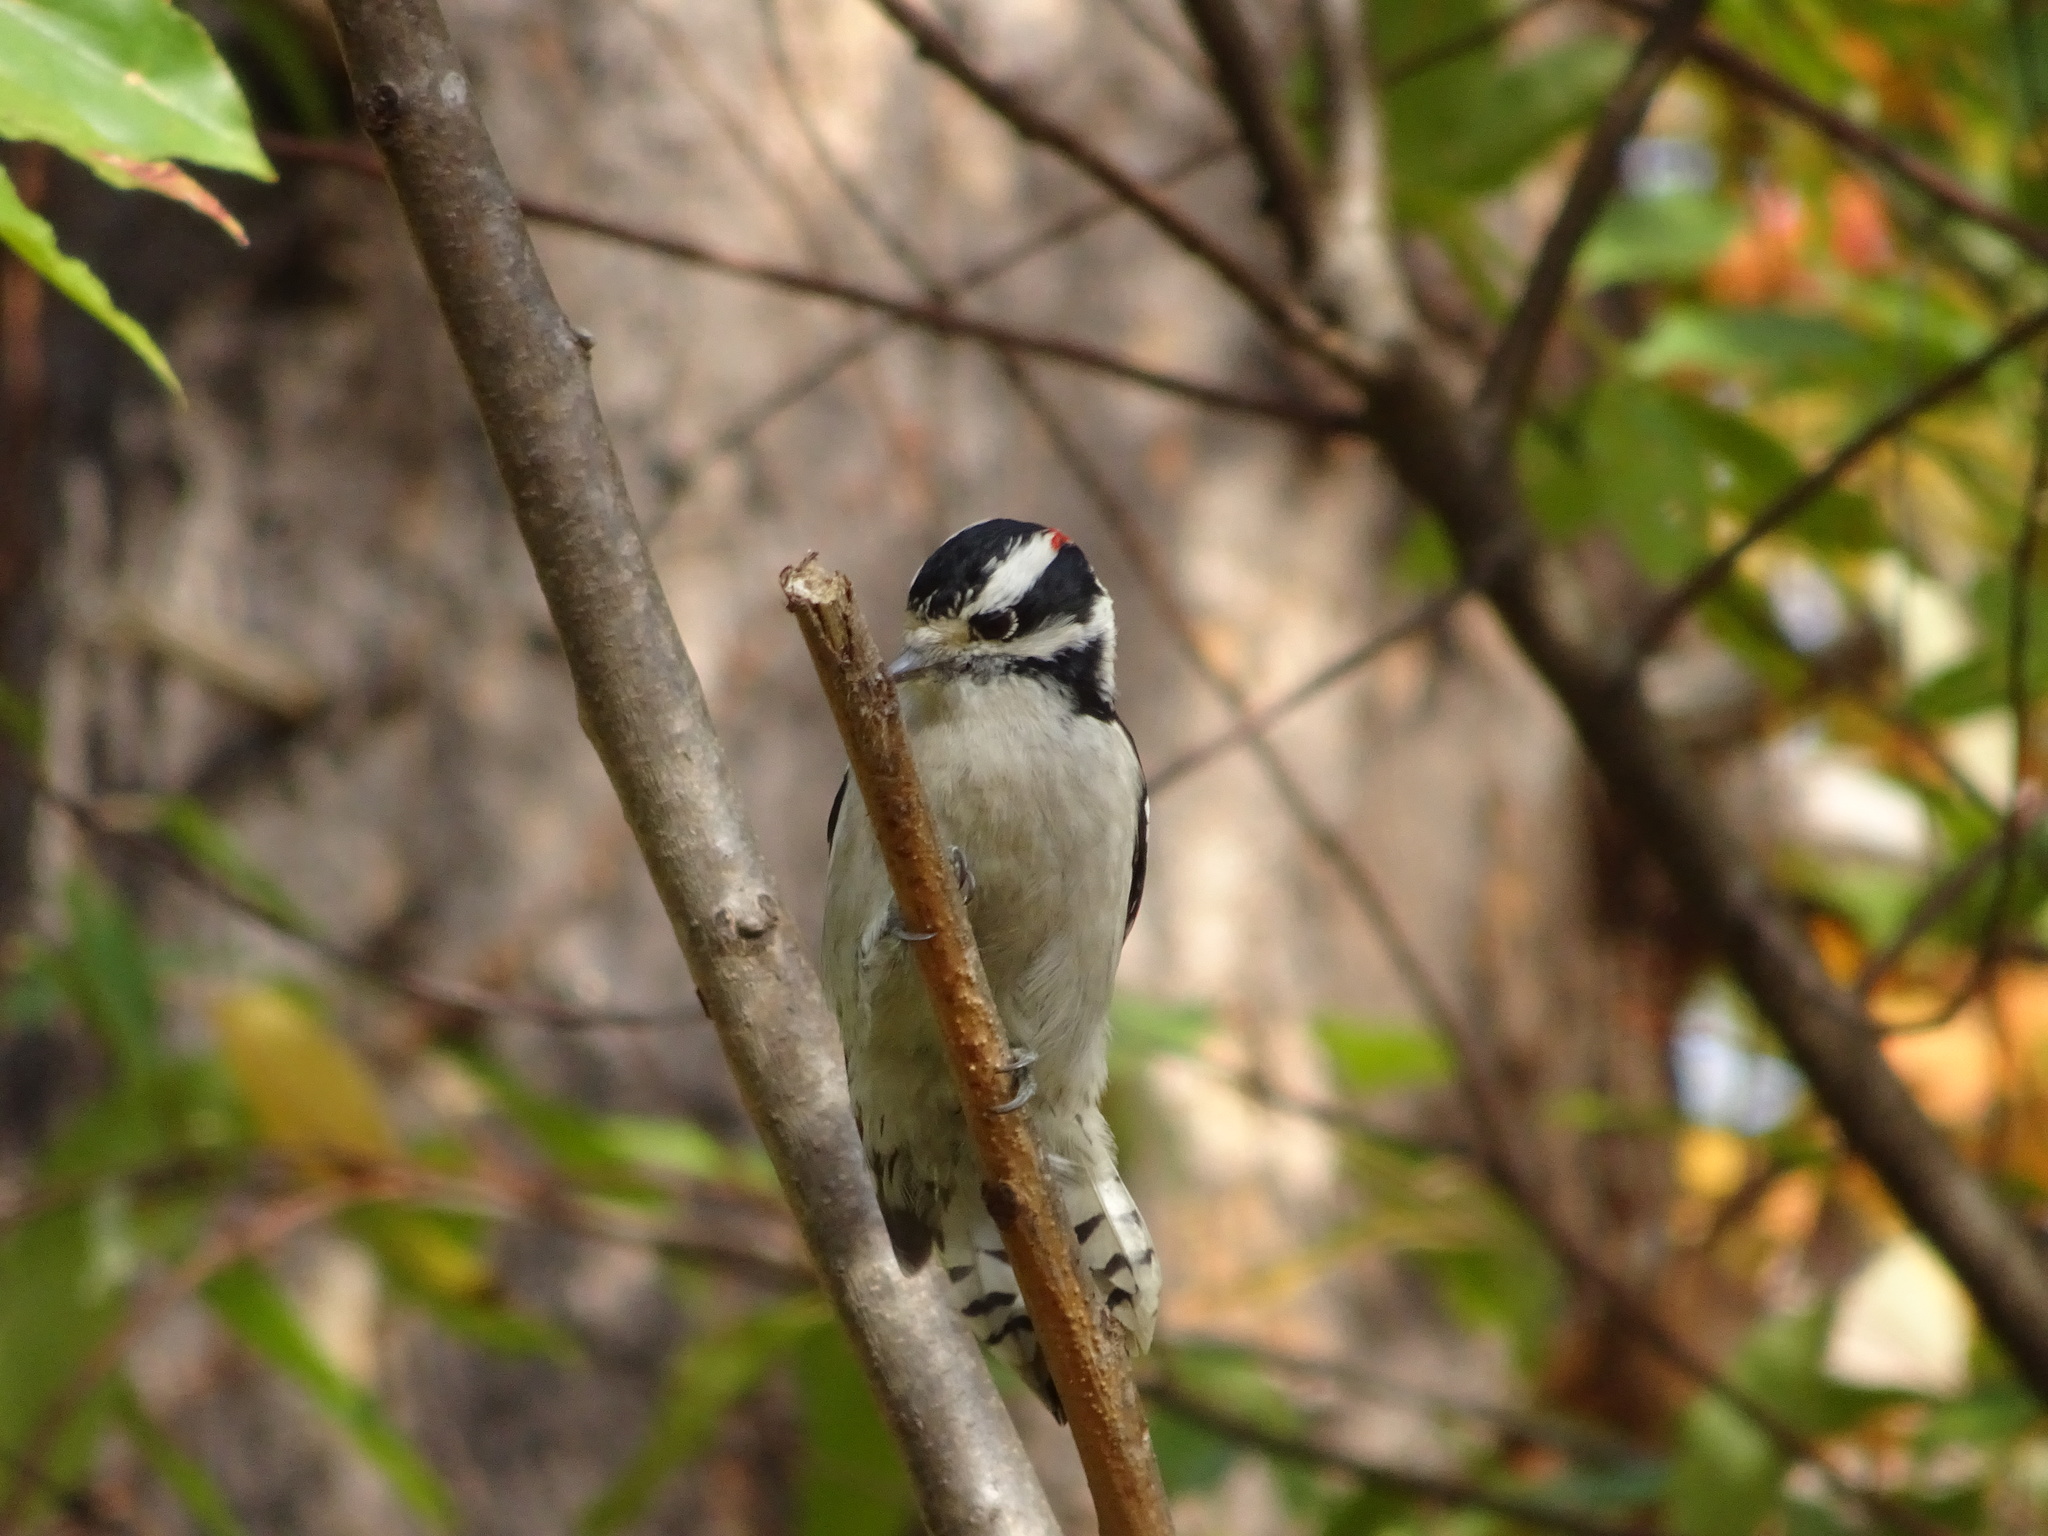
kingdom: Animalia
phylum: Chordata
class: Aves
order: Piciformes
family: Picidae
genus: Dryobates
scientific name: Dryobates pubescens
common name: Downy woodpecker
